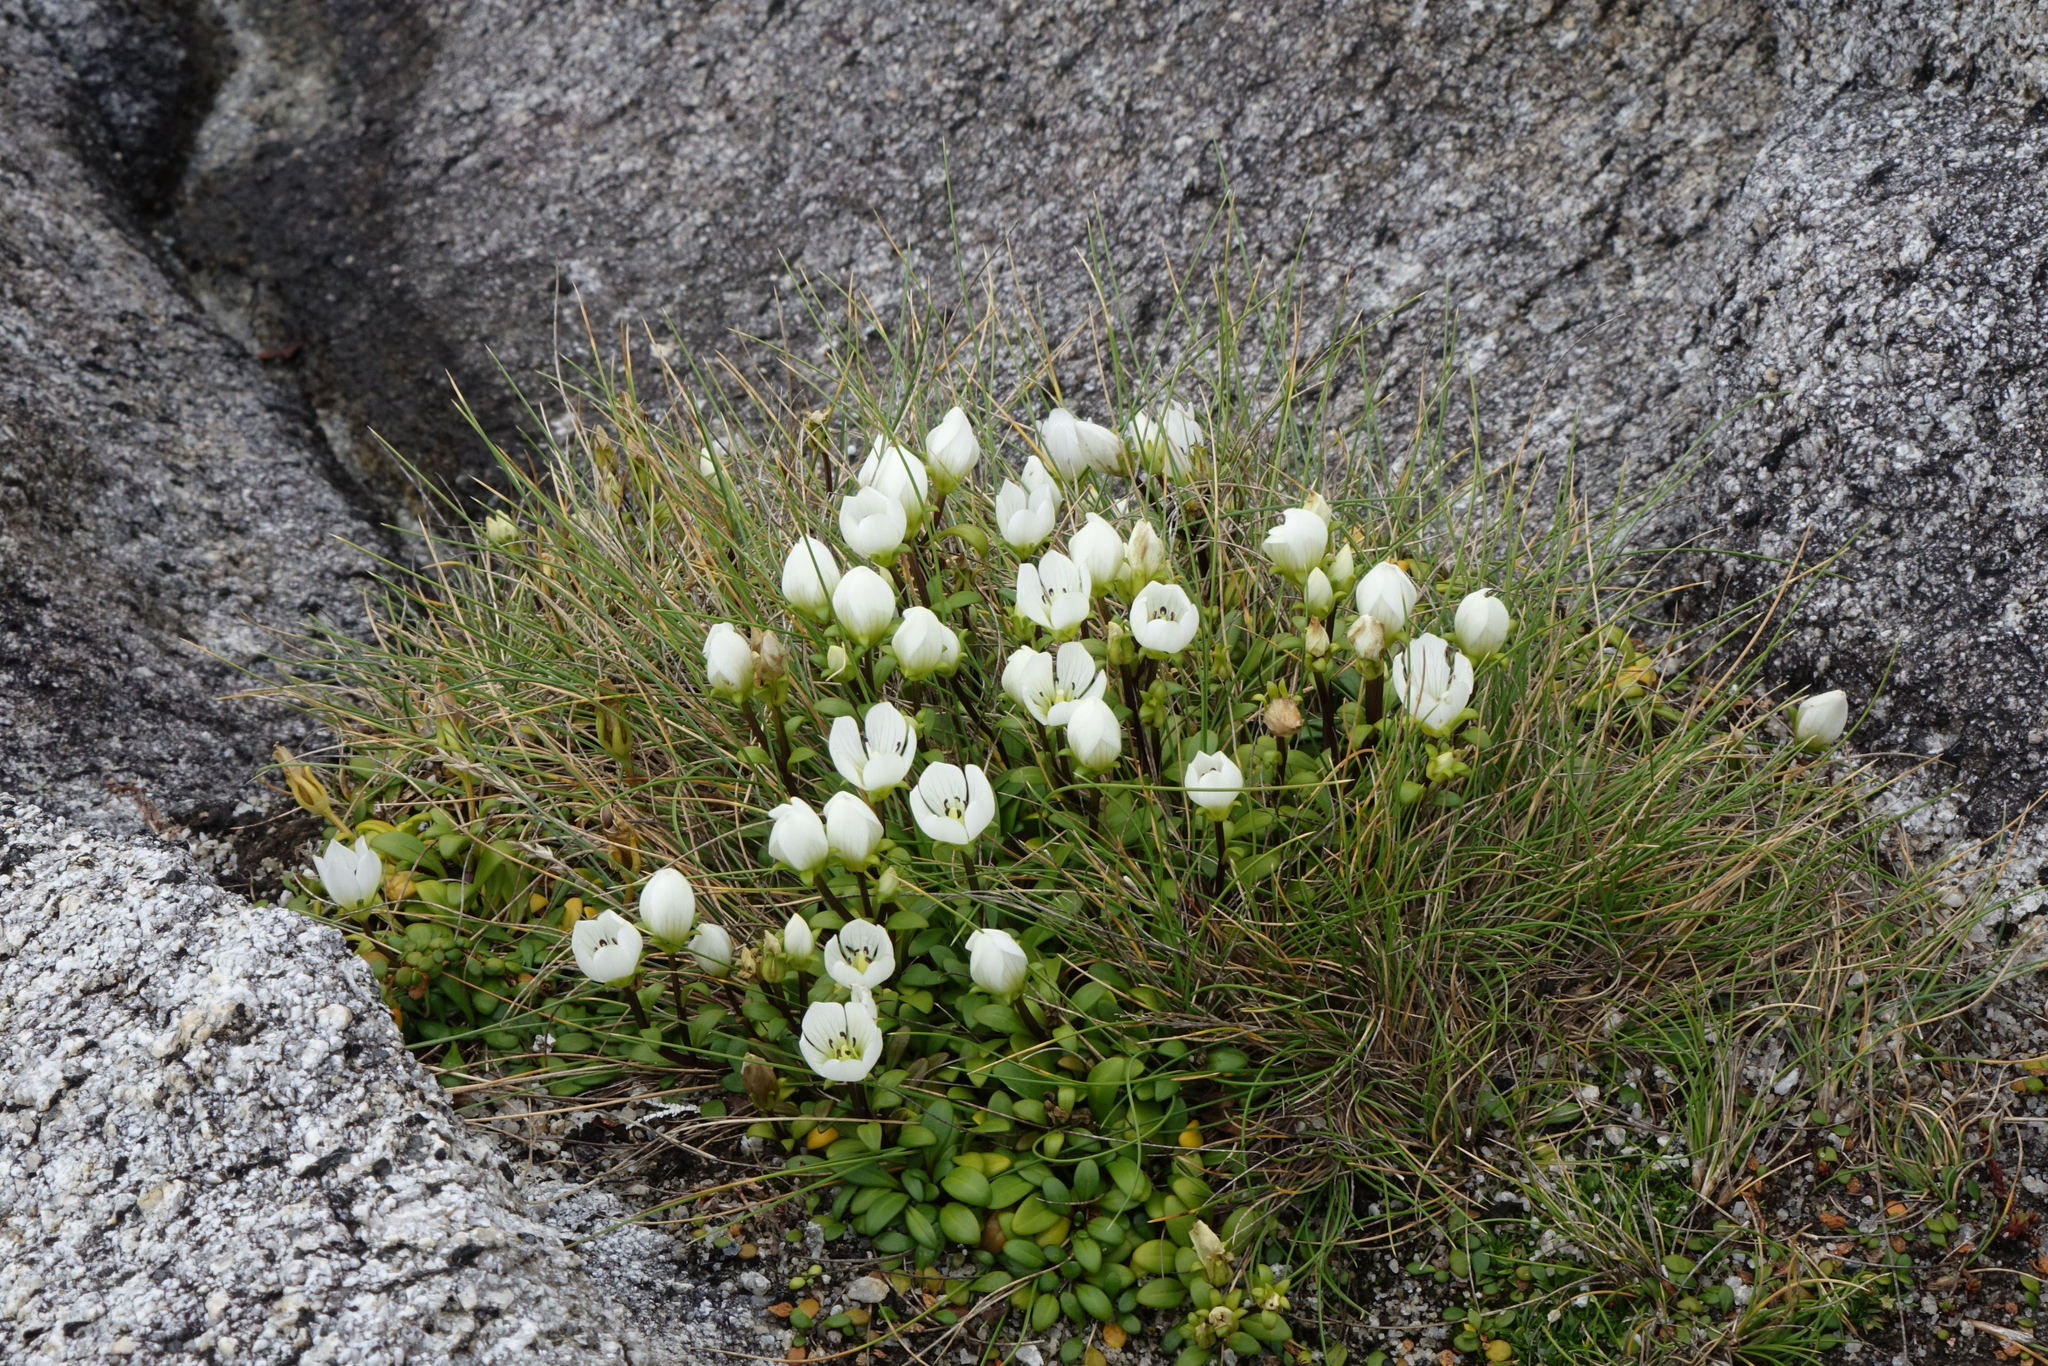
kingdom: Plantae
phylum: Tracheophyta
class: Magnoliopsida
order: Gentianales
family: Gentianaceae
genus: Gentianella
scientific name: Gentianella saxosa
